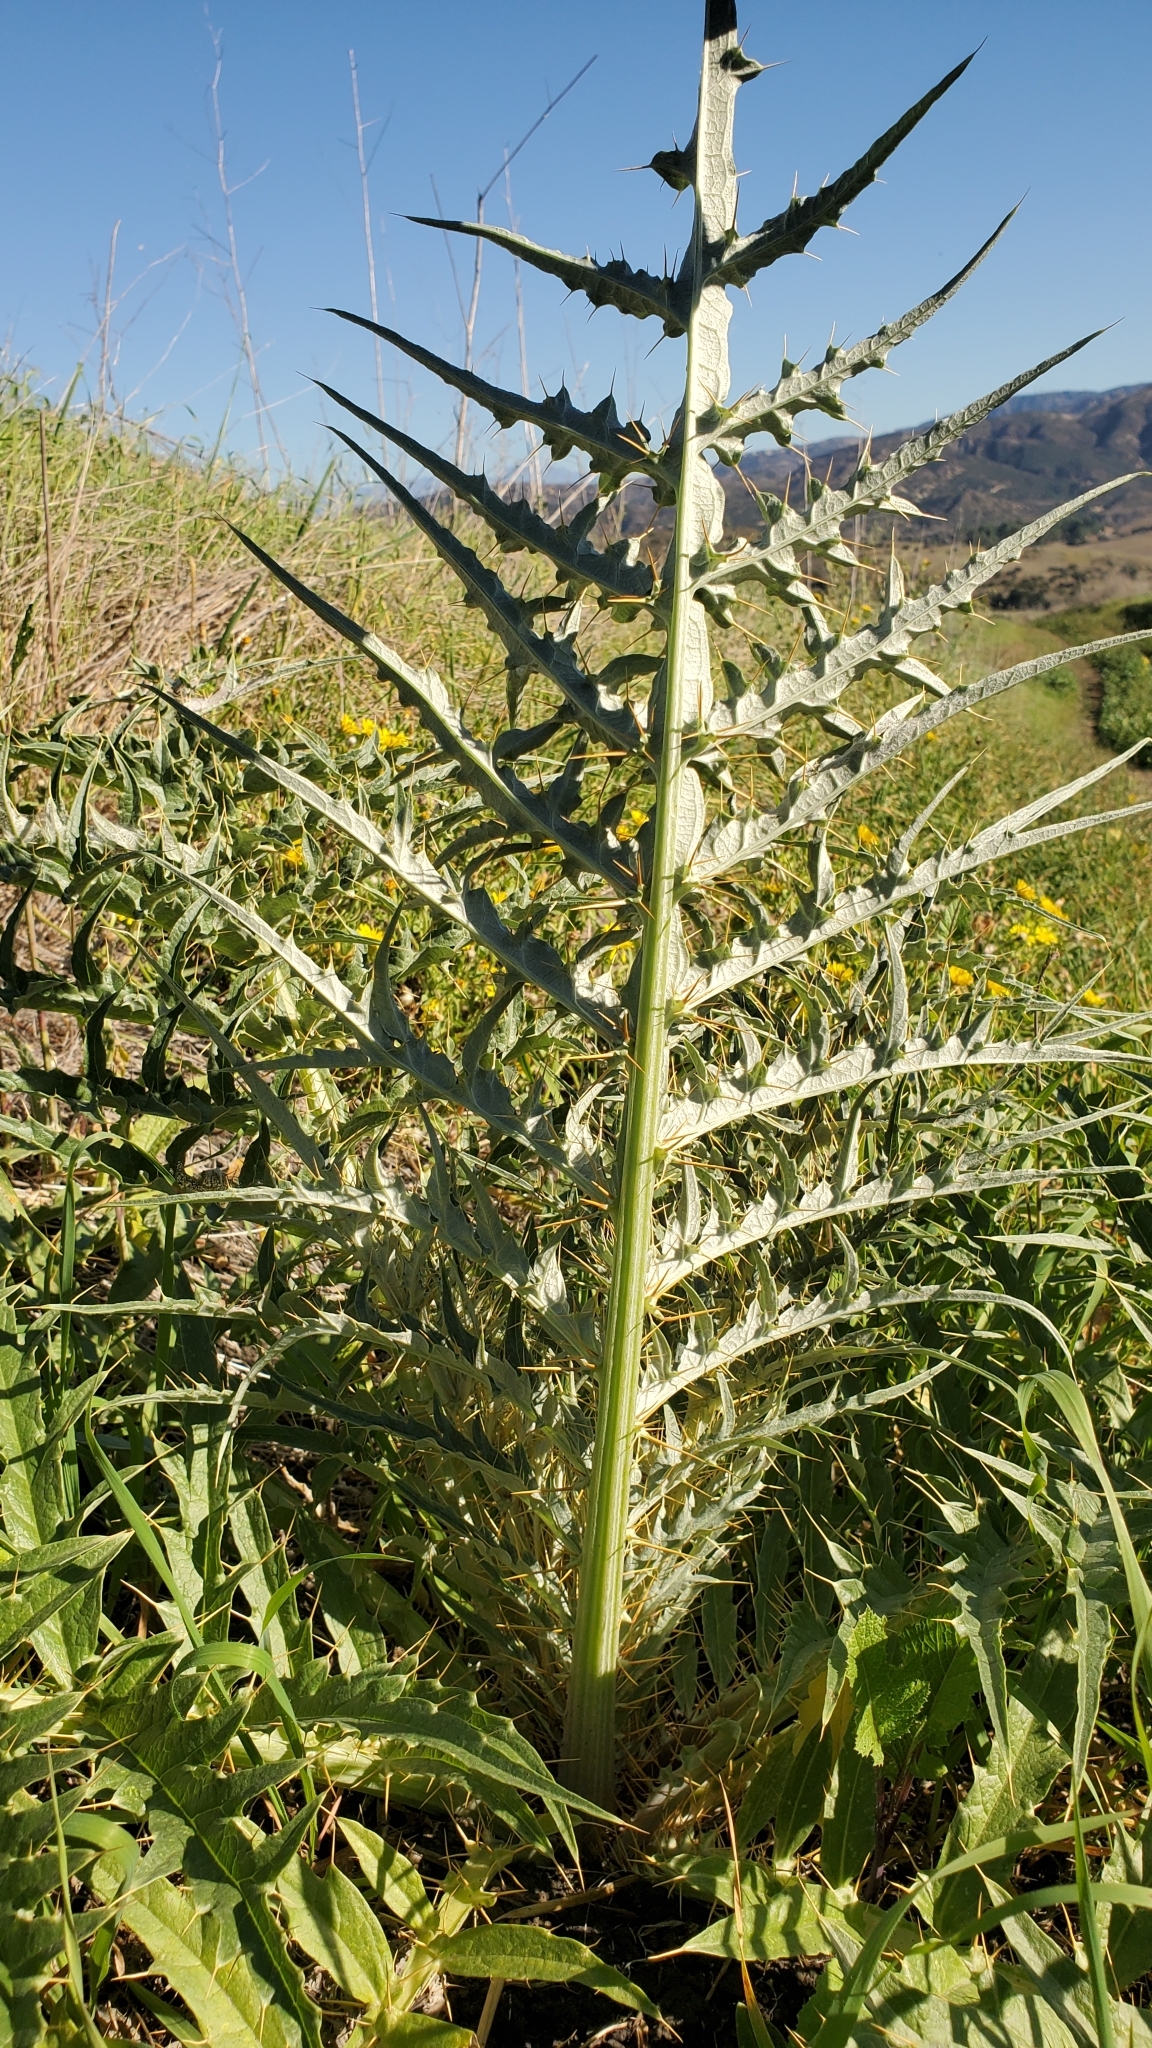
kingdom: Plantae
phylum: Tracheophyta
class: Magnoliopsida
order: Asterales
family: Asteraceae
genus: Cynara
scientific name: Cynara cardunculus
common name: Globe artichoke
